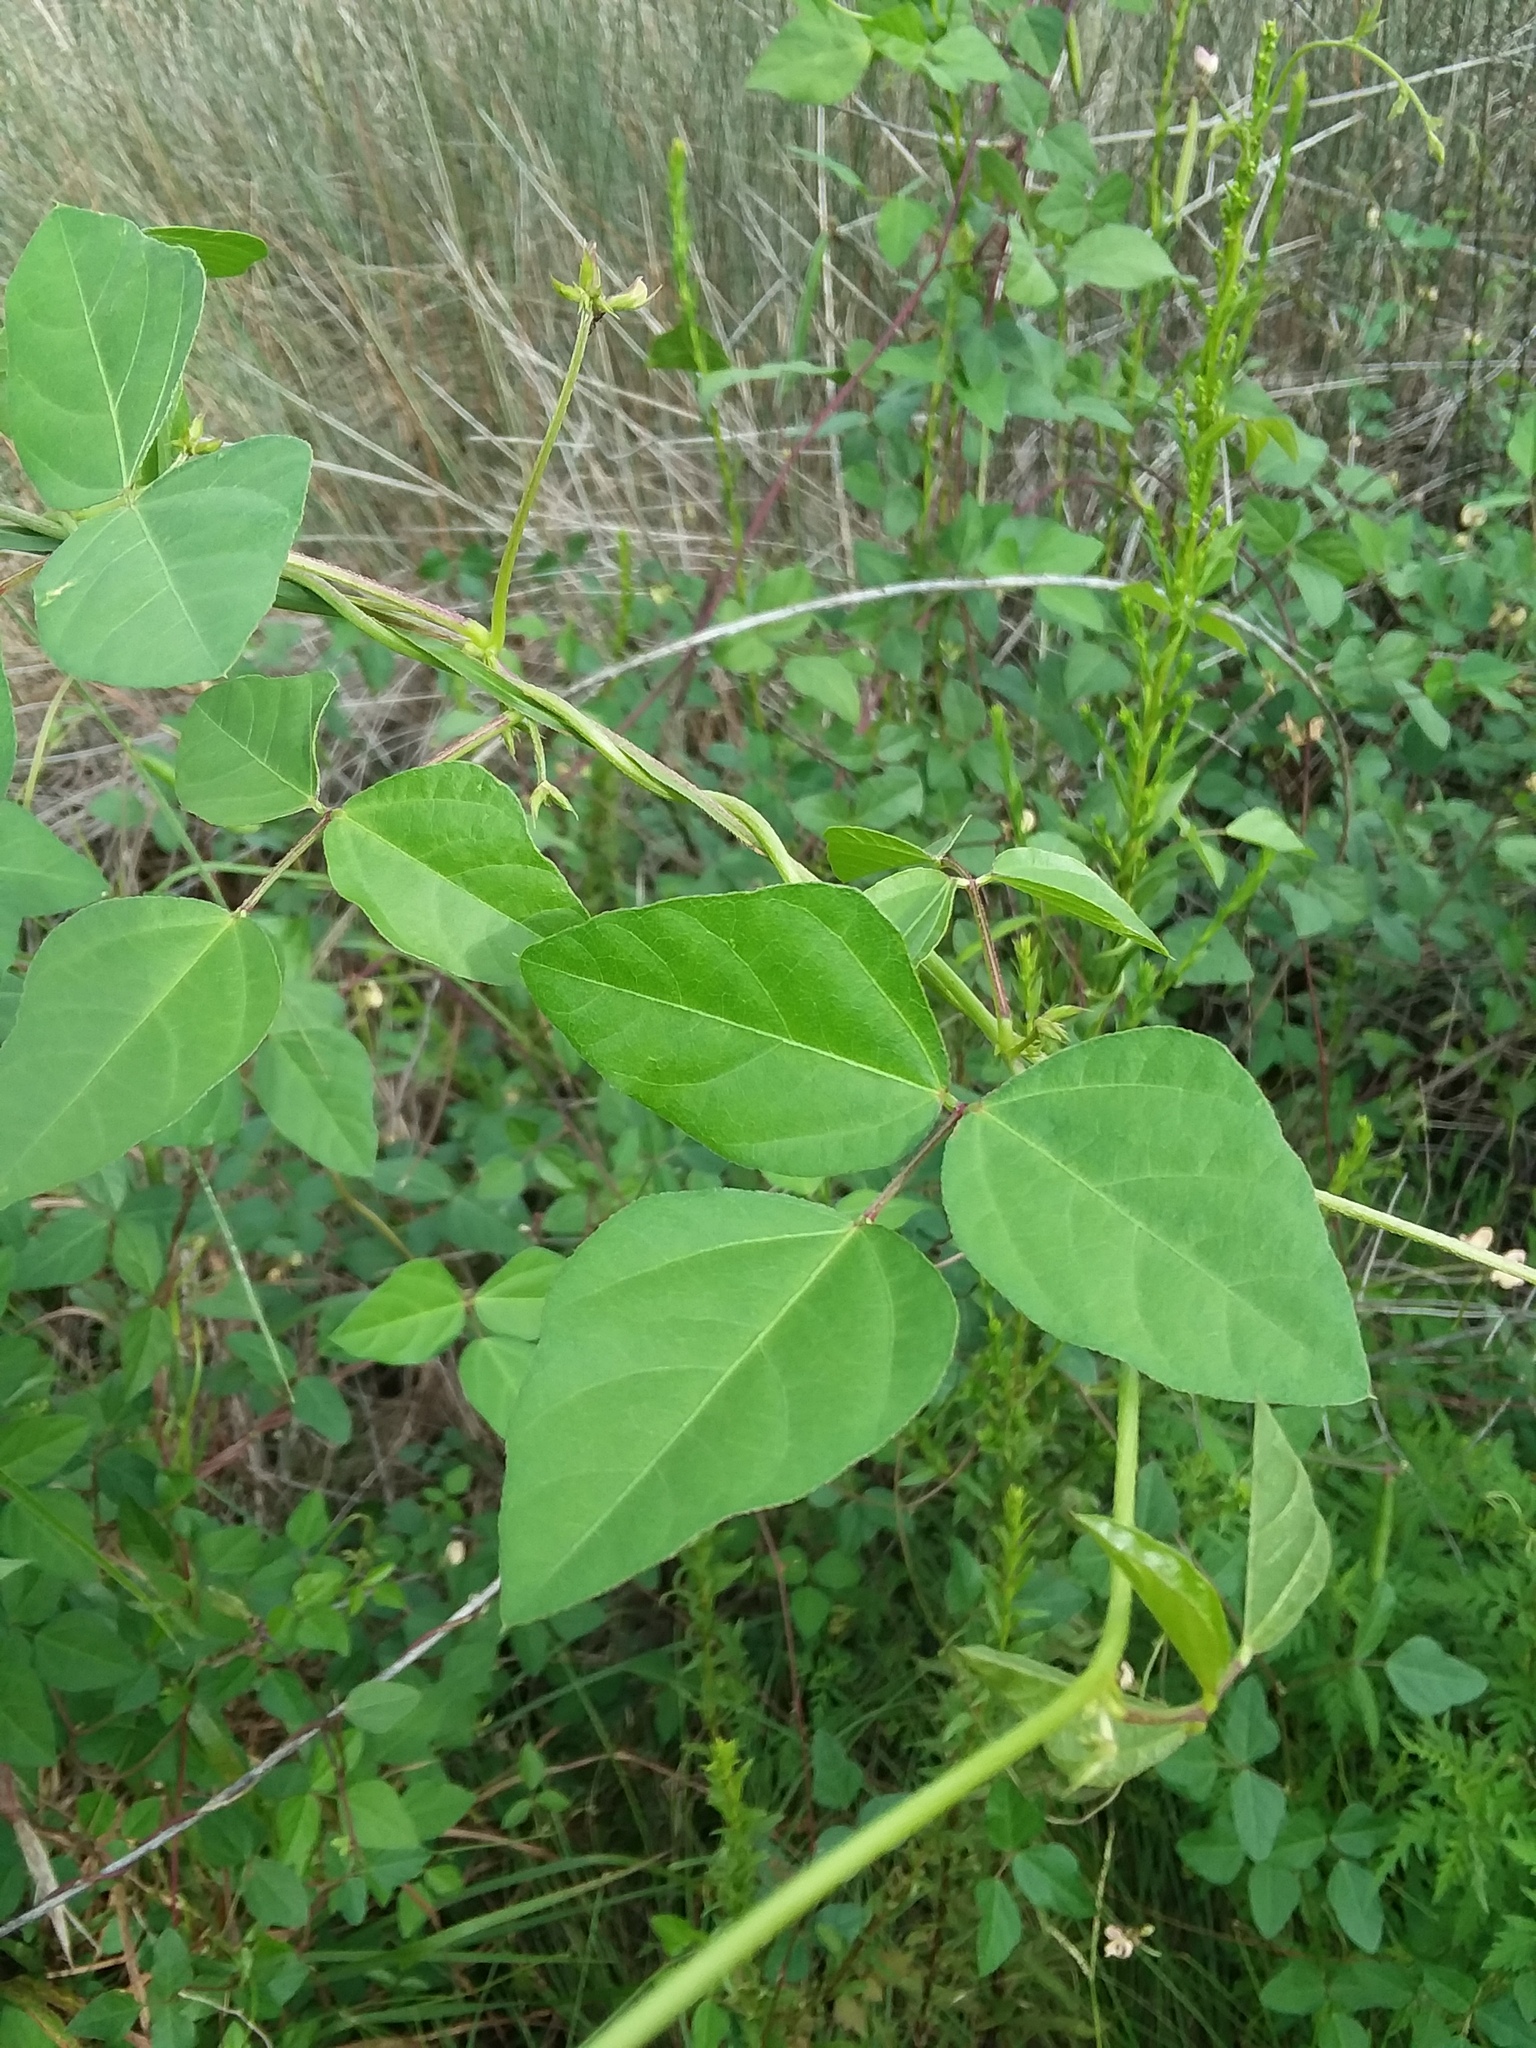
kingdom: Plantae
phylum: Tracheophyta
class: Magnoliopsida
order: Fabales
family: Fabaceae
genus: Strophostyles
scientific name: Strophostyles helvola
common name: Trailing wild bean
